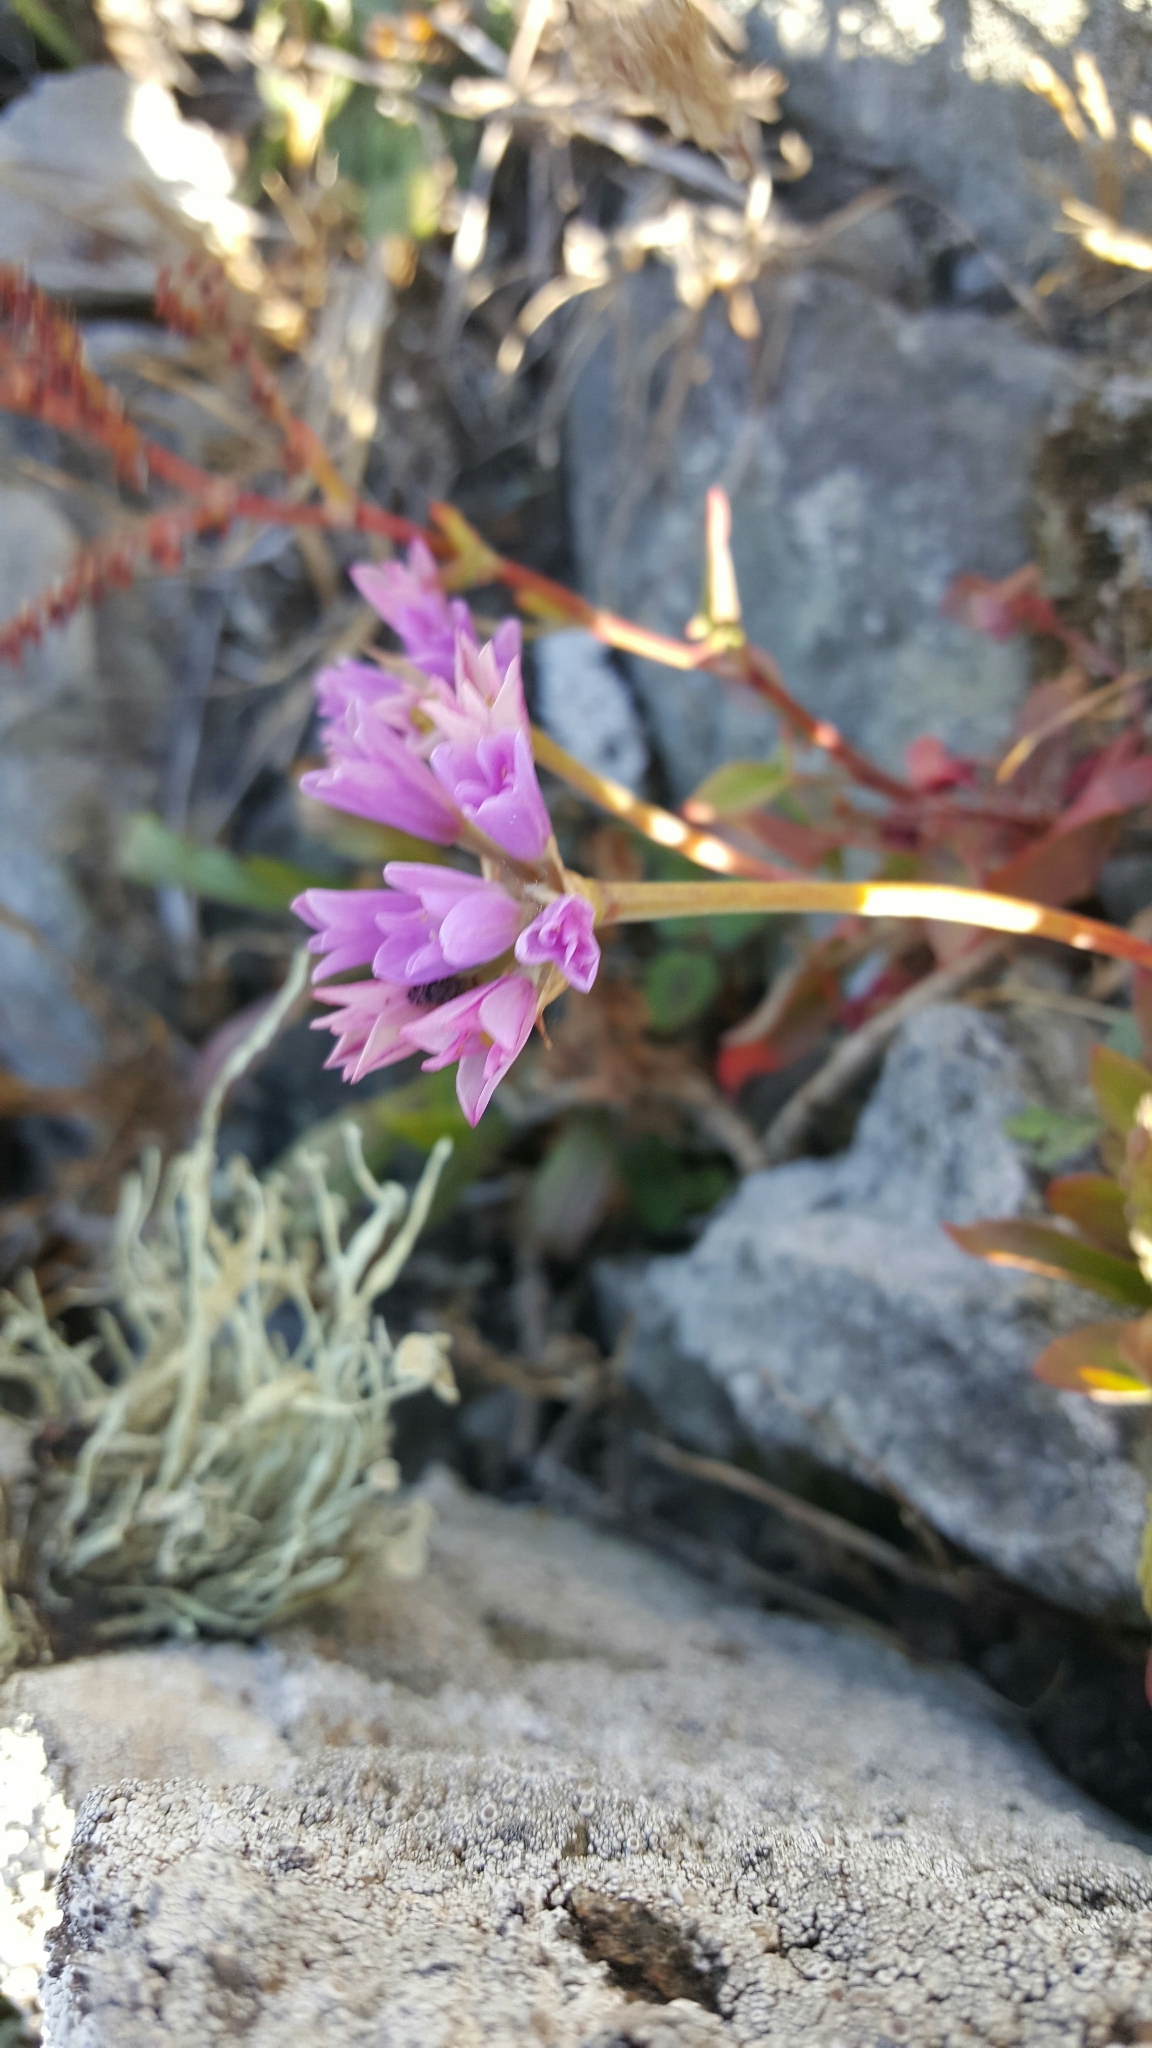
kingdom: Plantae
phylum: Tracheophyta
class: Liliopsida
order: Asparagales
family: Amaryllidaceae
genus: Allium
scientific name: Allium dichlamydeum
